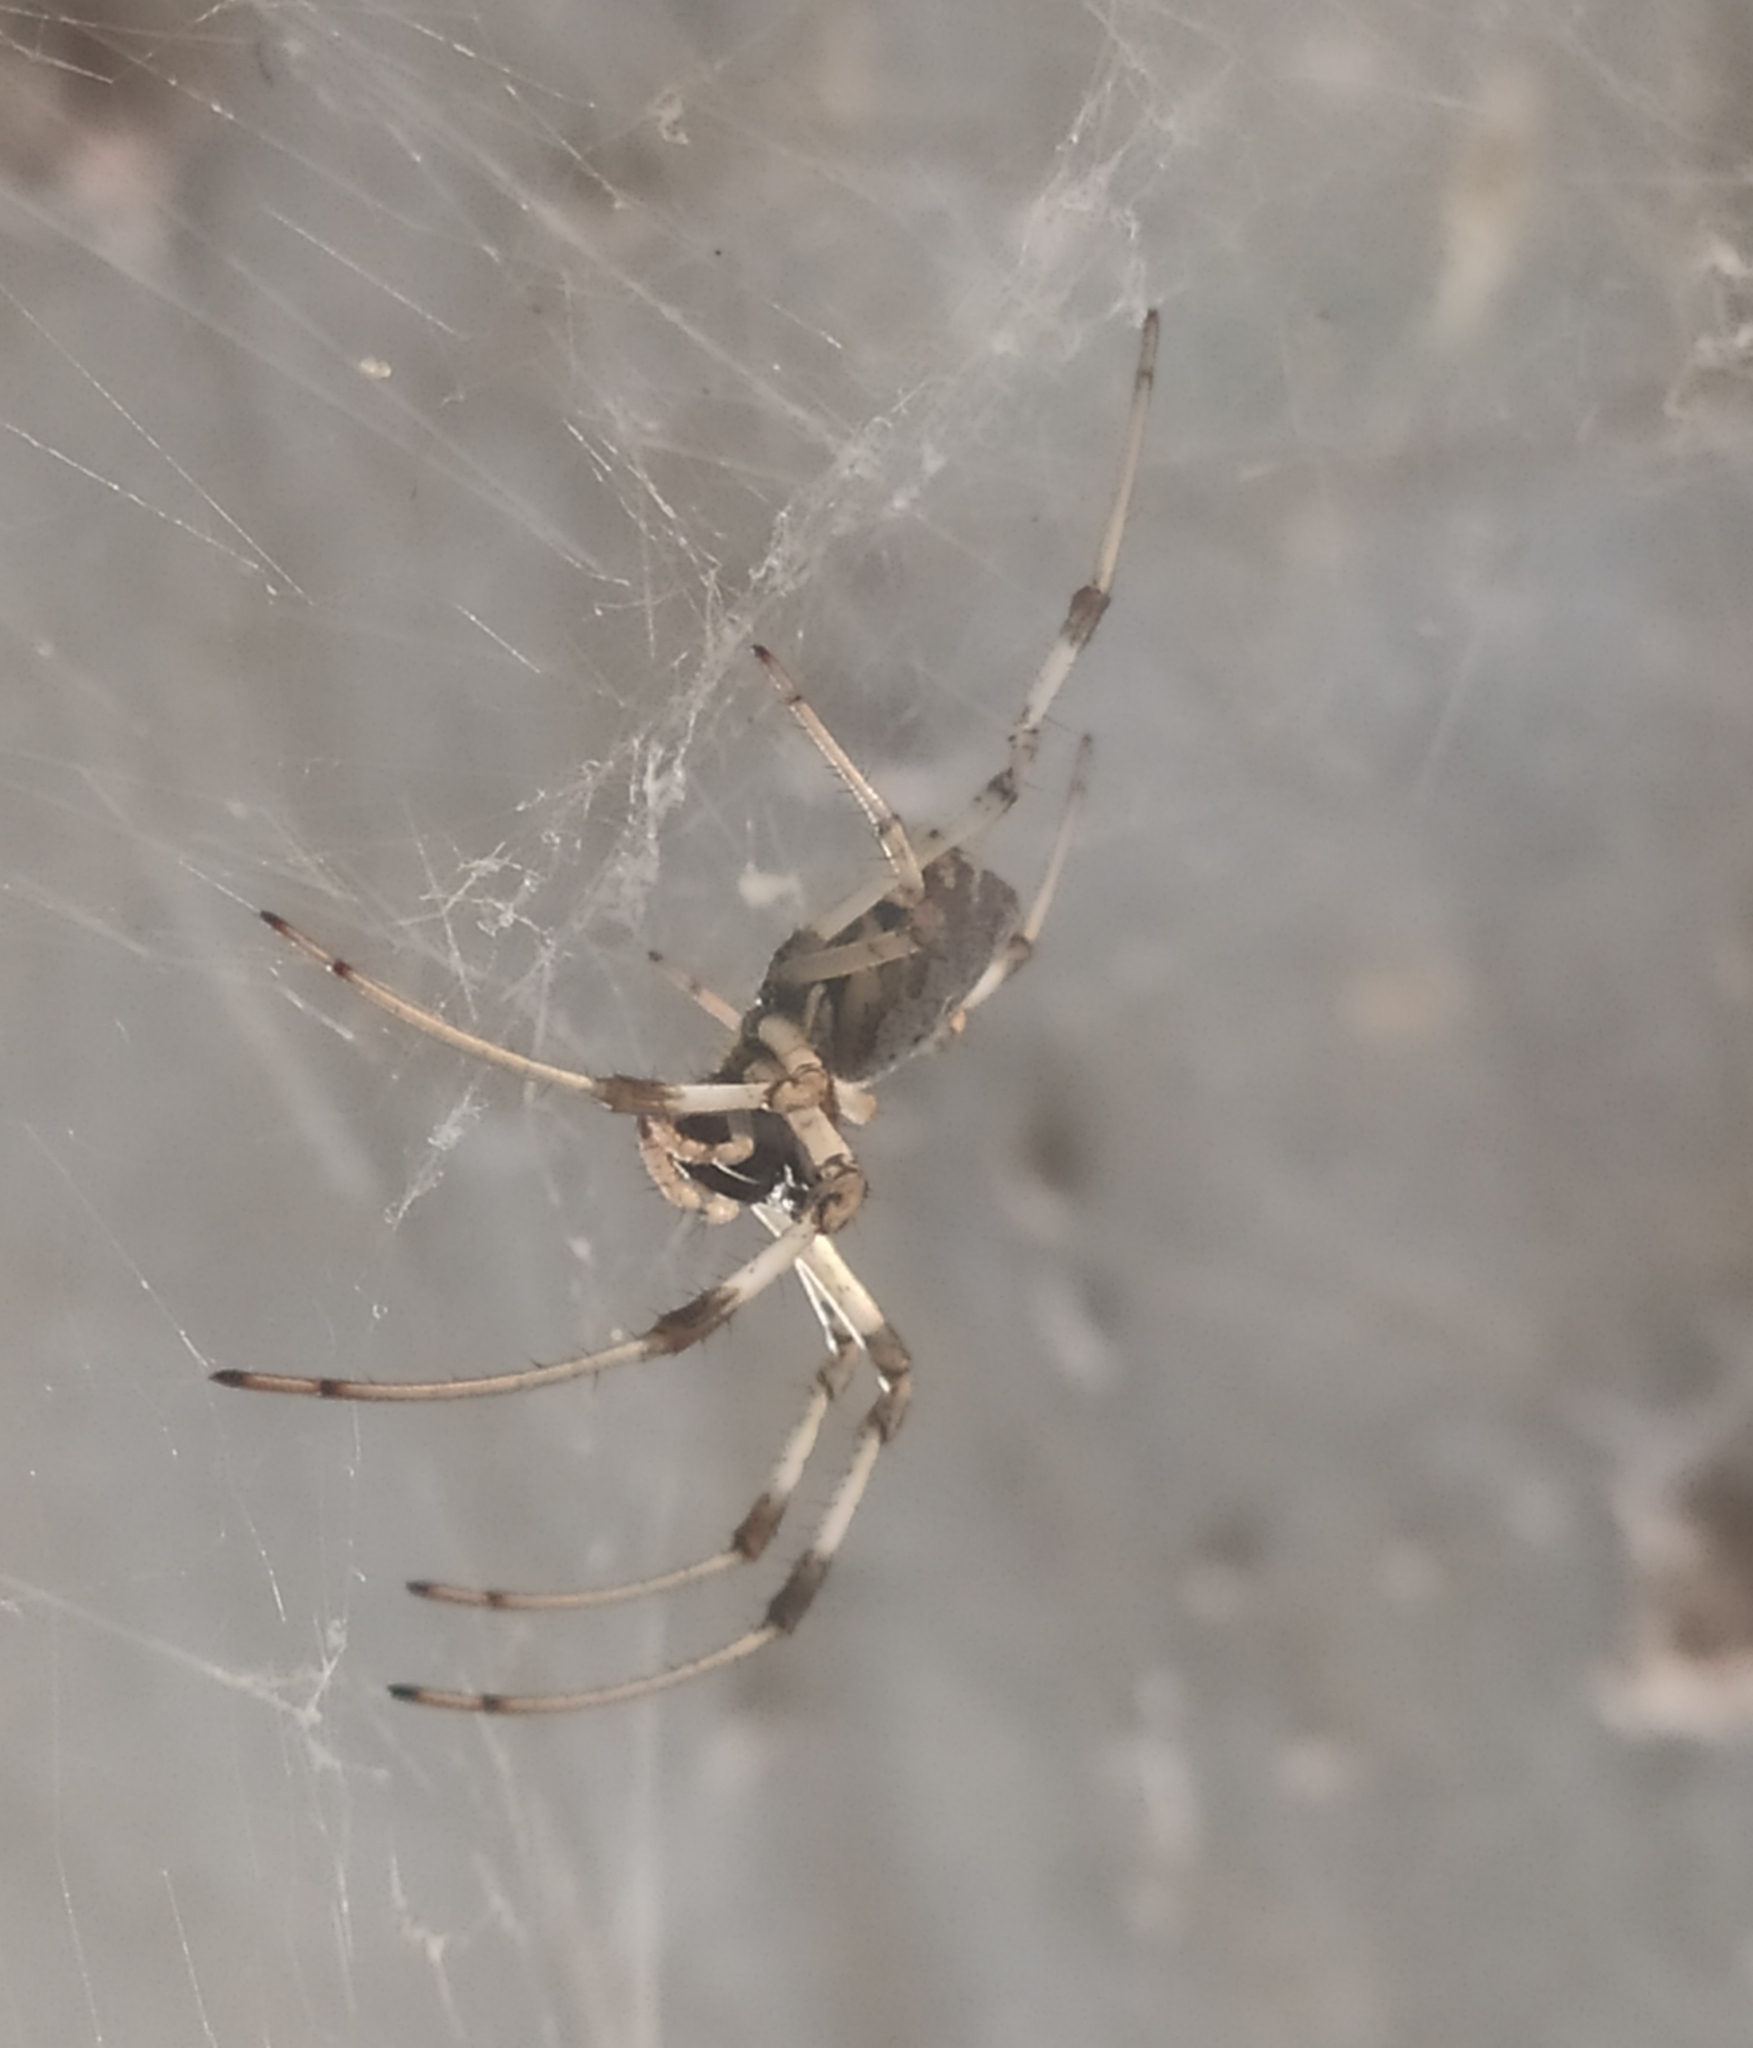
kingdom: Animalia
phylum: Arthropoda
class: Arachnida
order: Araneae
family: Araneidae
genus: Nephilingis
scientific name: Nephilingis cruentata
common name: African hermit spider
